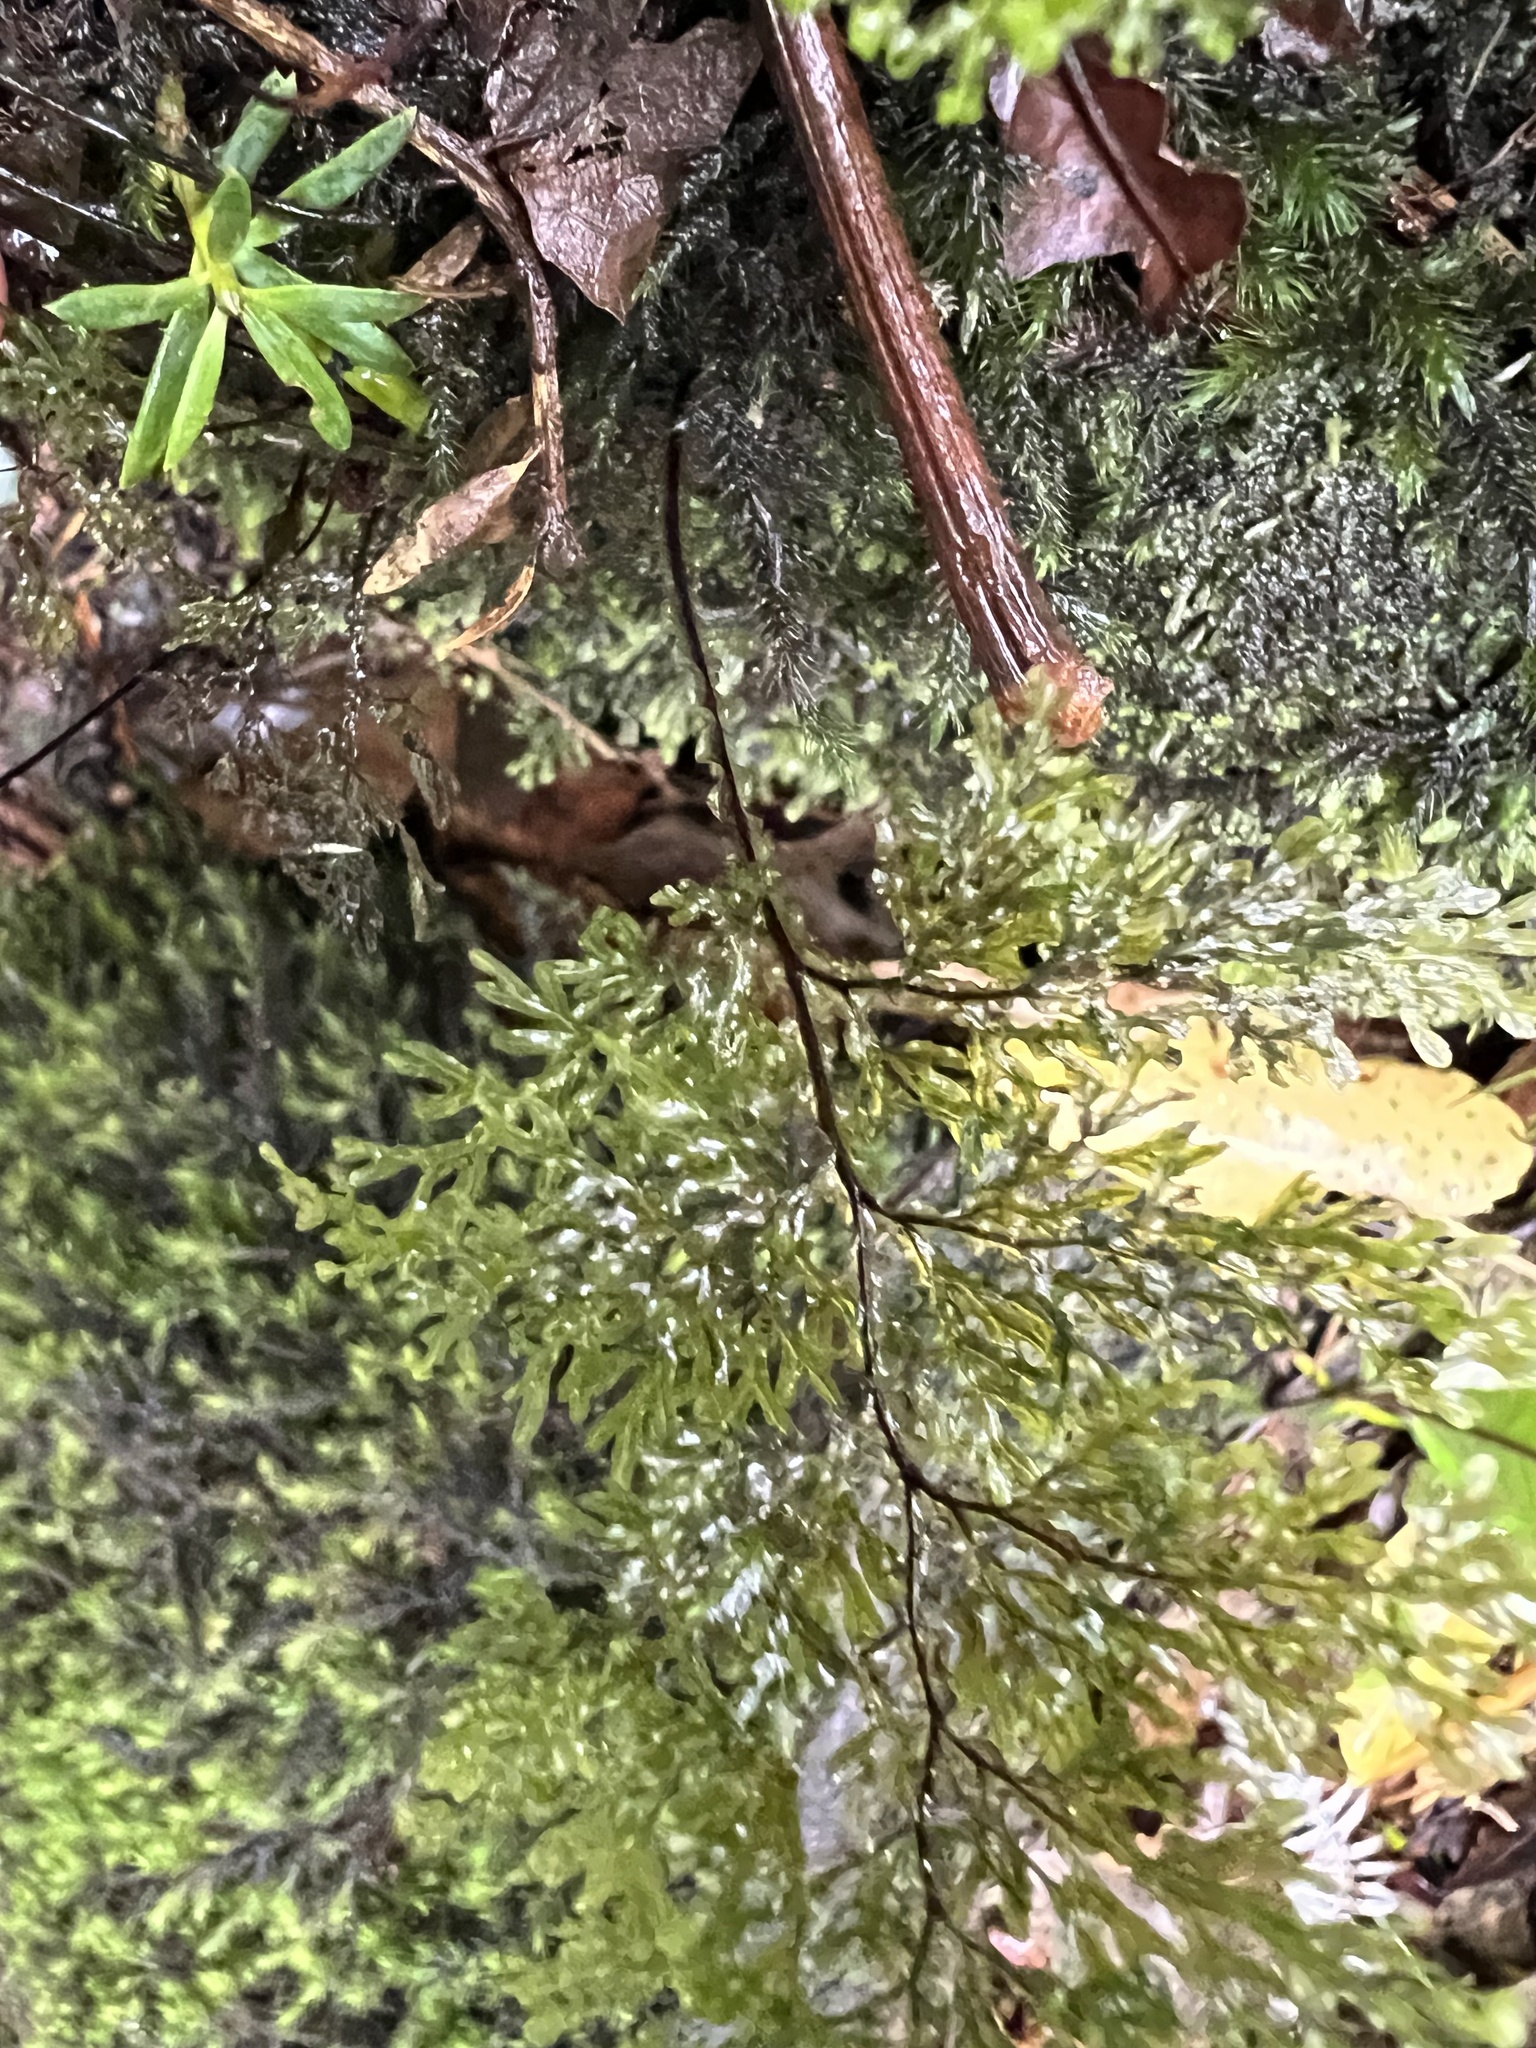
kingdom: Plantae
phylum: Tracheophyta
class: Polypodiopsida
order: Hymenophyllales
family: Hymenophyllaceae
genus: Hymenophyllum
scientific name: Hymenophyllum flexuosum
